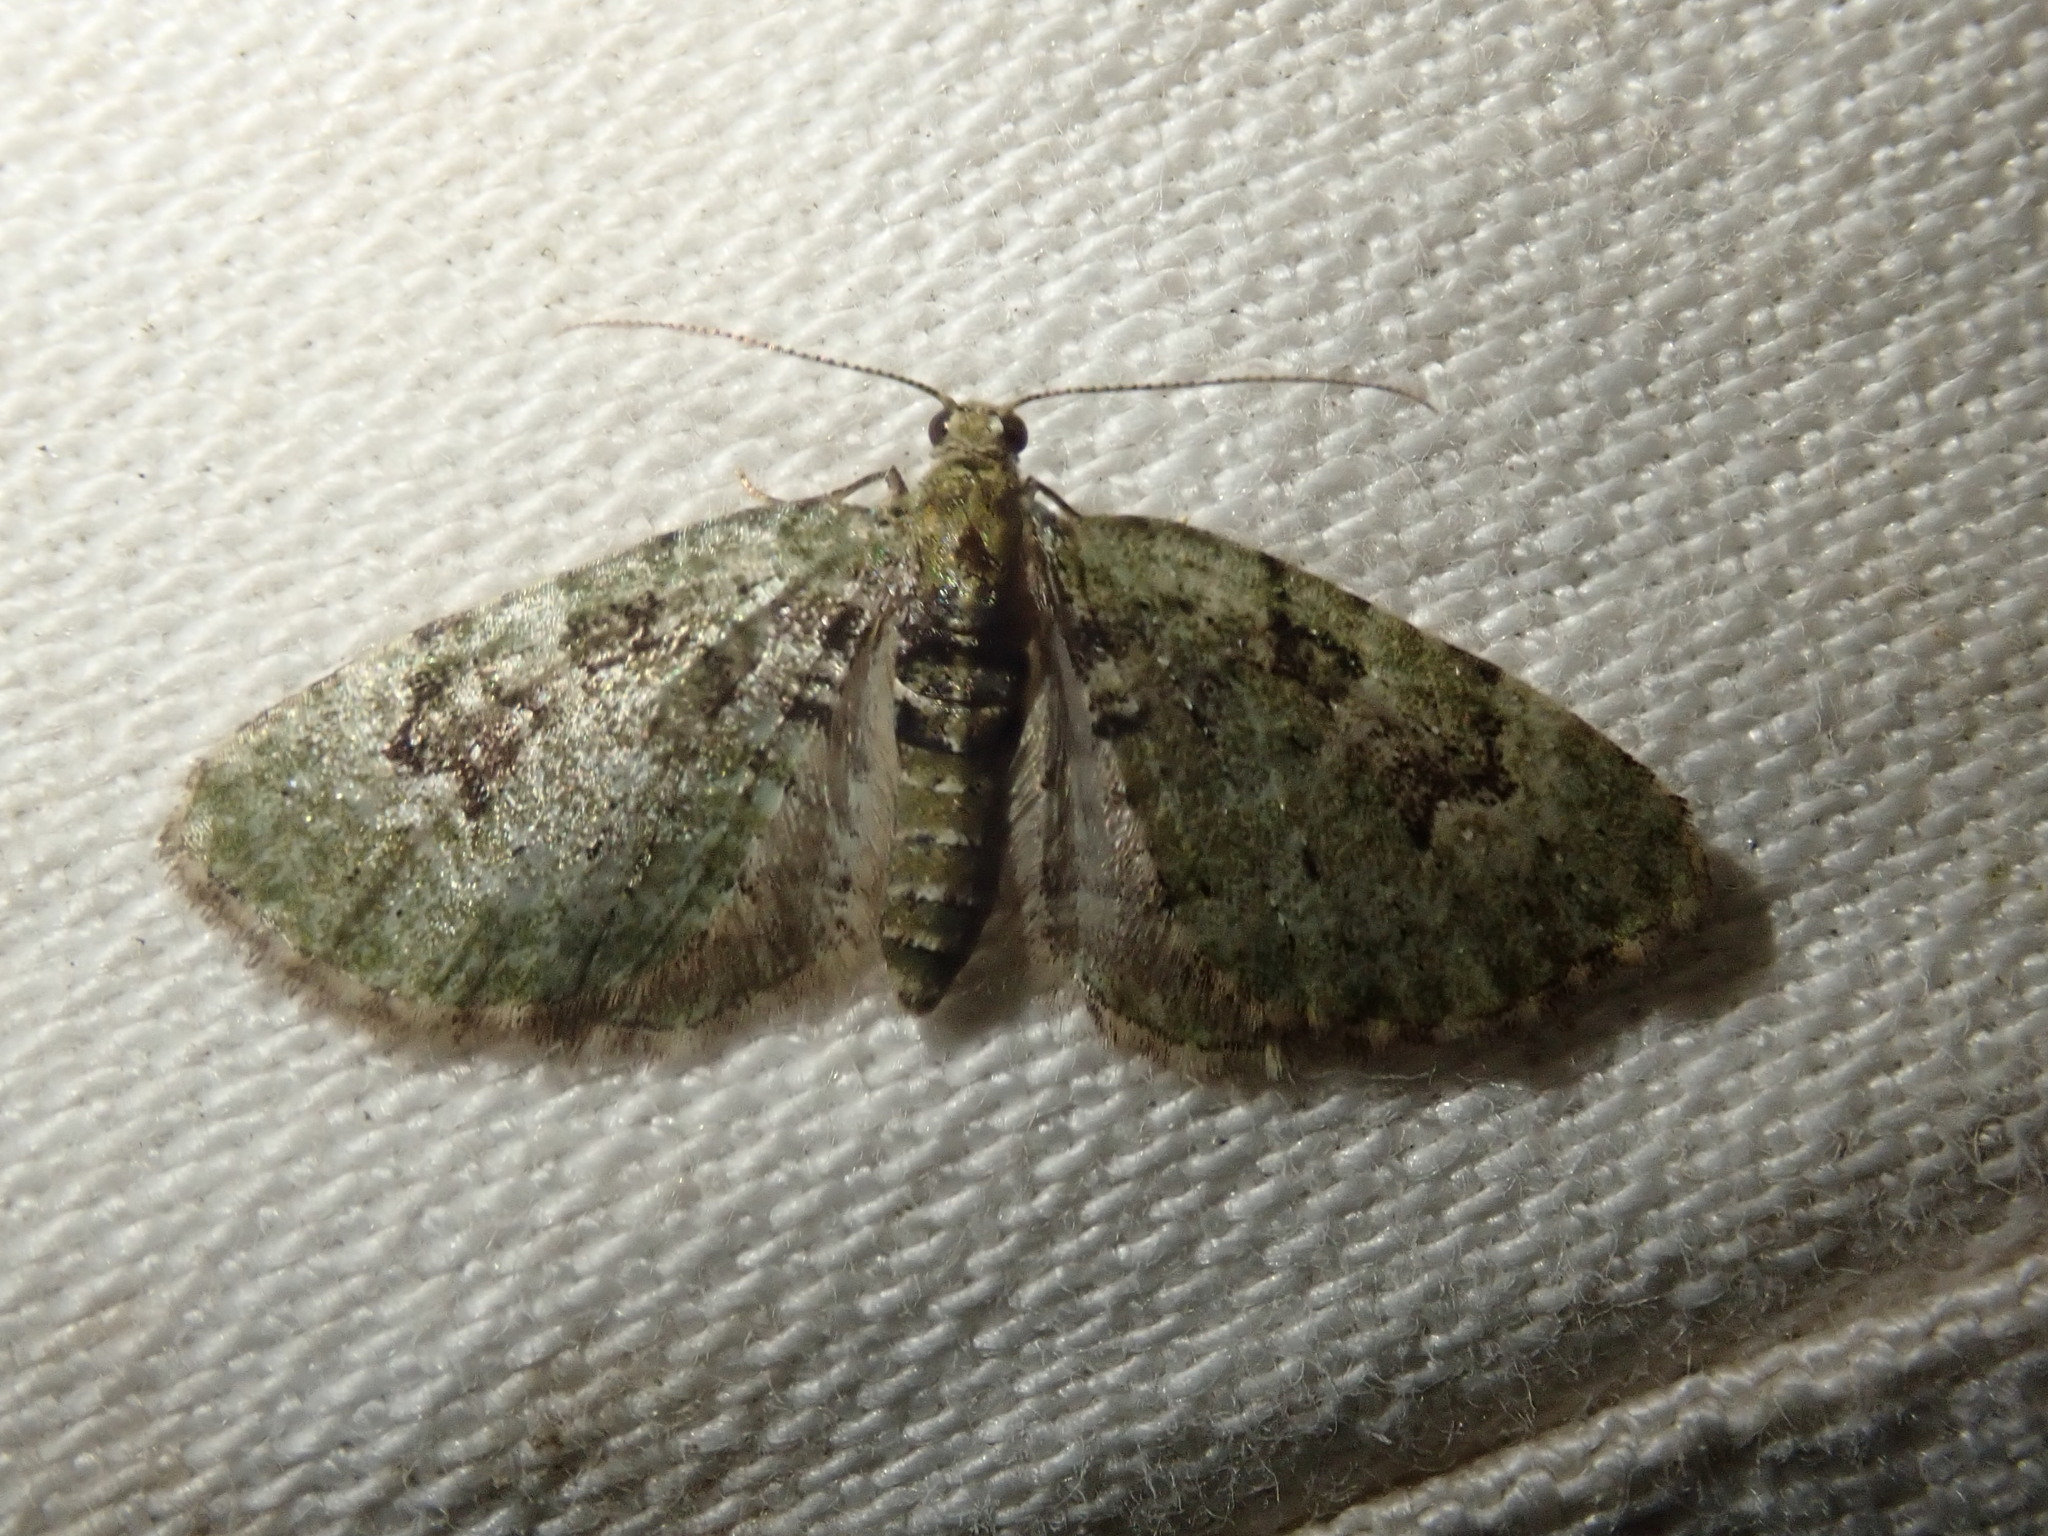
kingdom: Animalia
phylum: Arthropoda
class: Insecta
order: Lepidoptera
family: Geometridae
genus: Chloroclystis
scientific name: Chloroclystis v-ata
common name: V-pug
